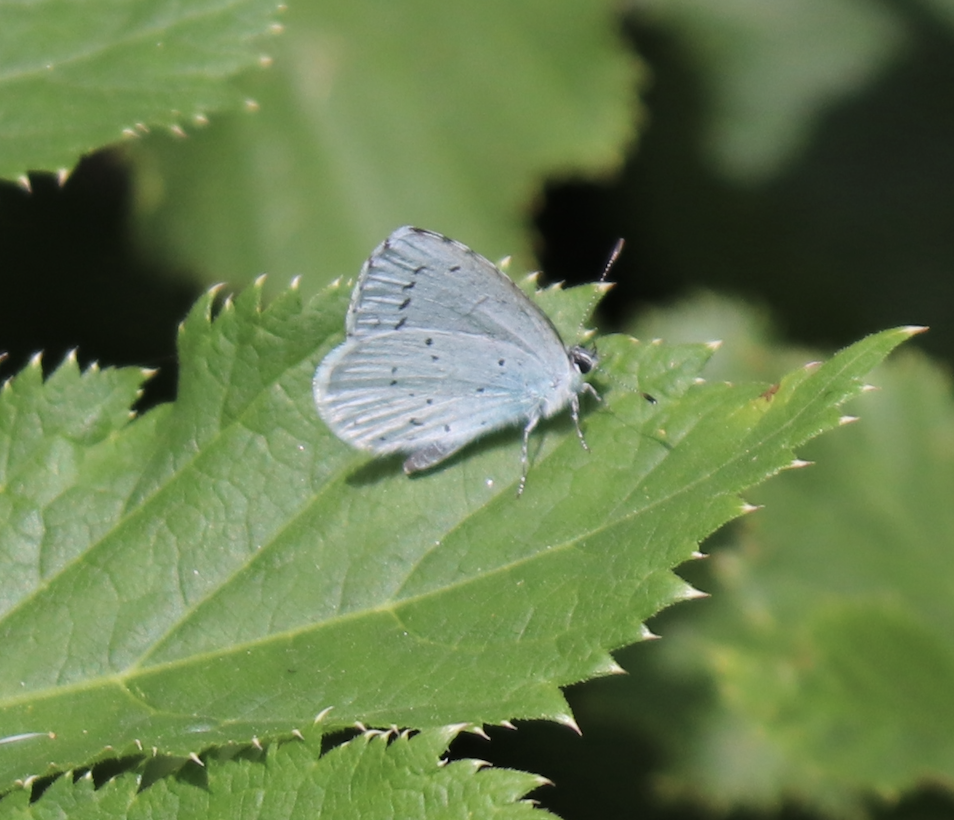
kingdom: Animalia
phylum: Arthropoda
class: Insecta
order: Lepidoptera
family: Lycaenidae
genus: Celastrina
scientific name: Celastrina argiolus
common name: Holly blue
